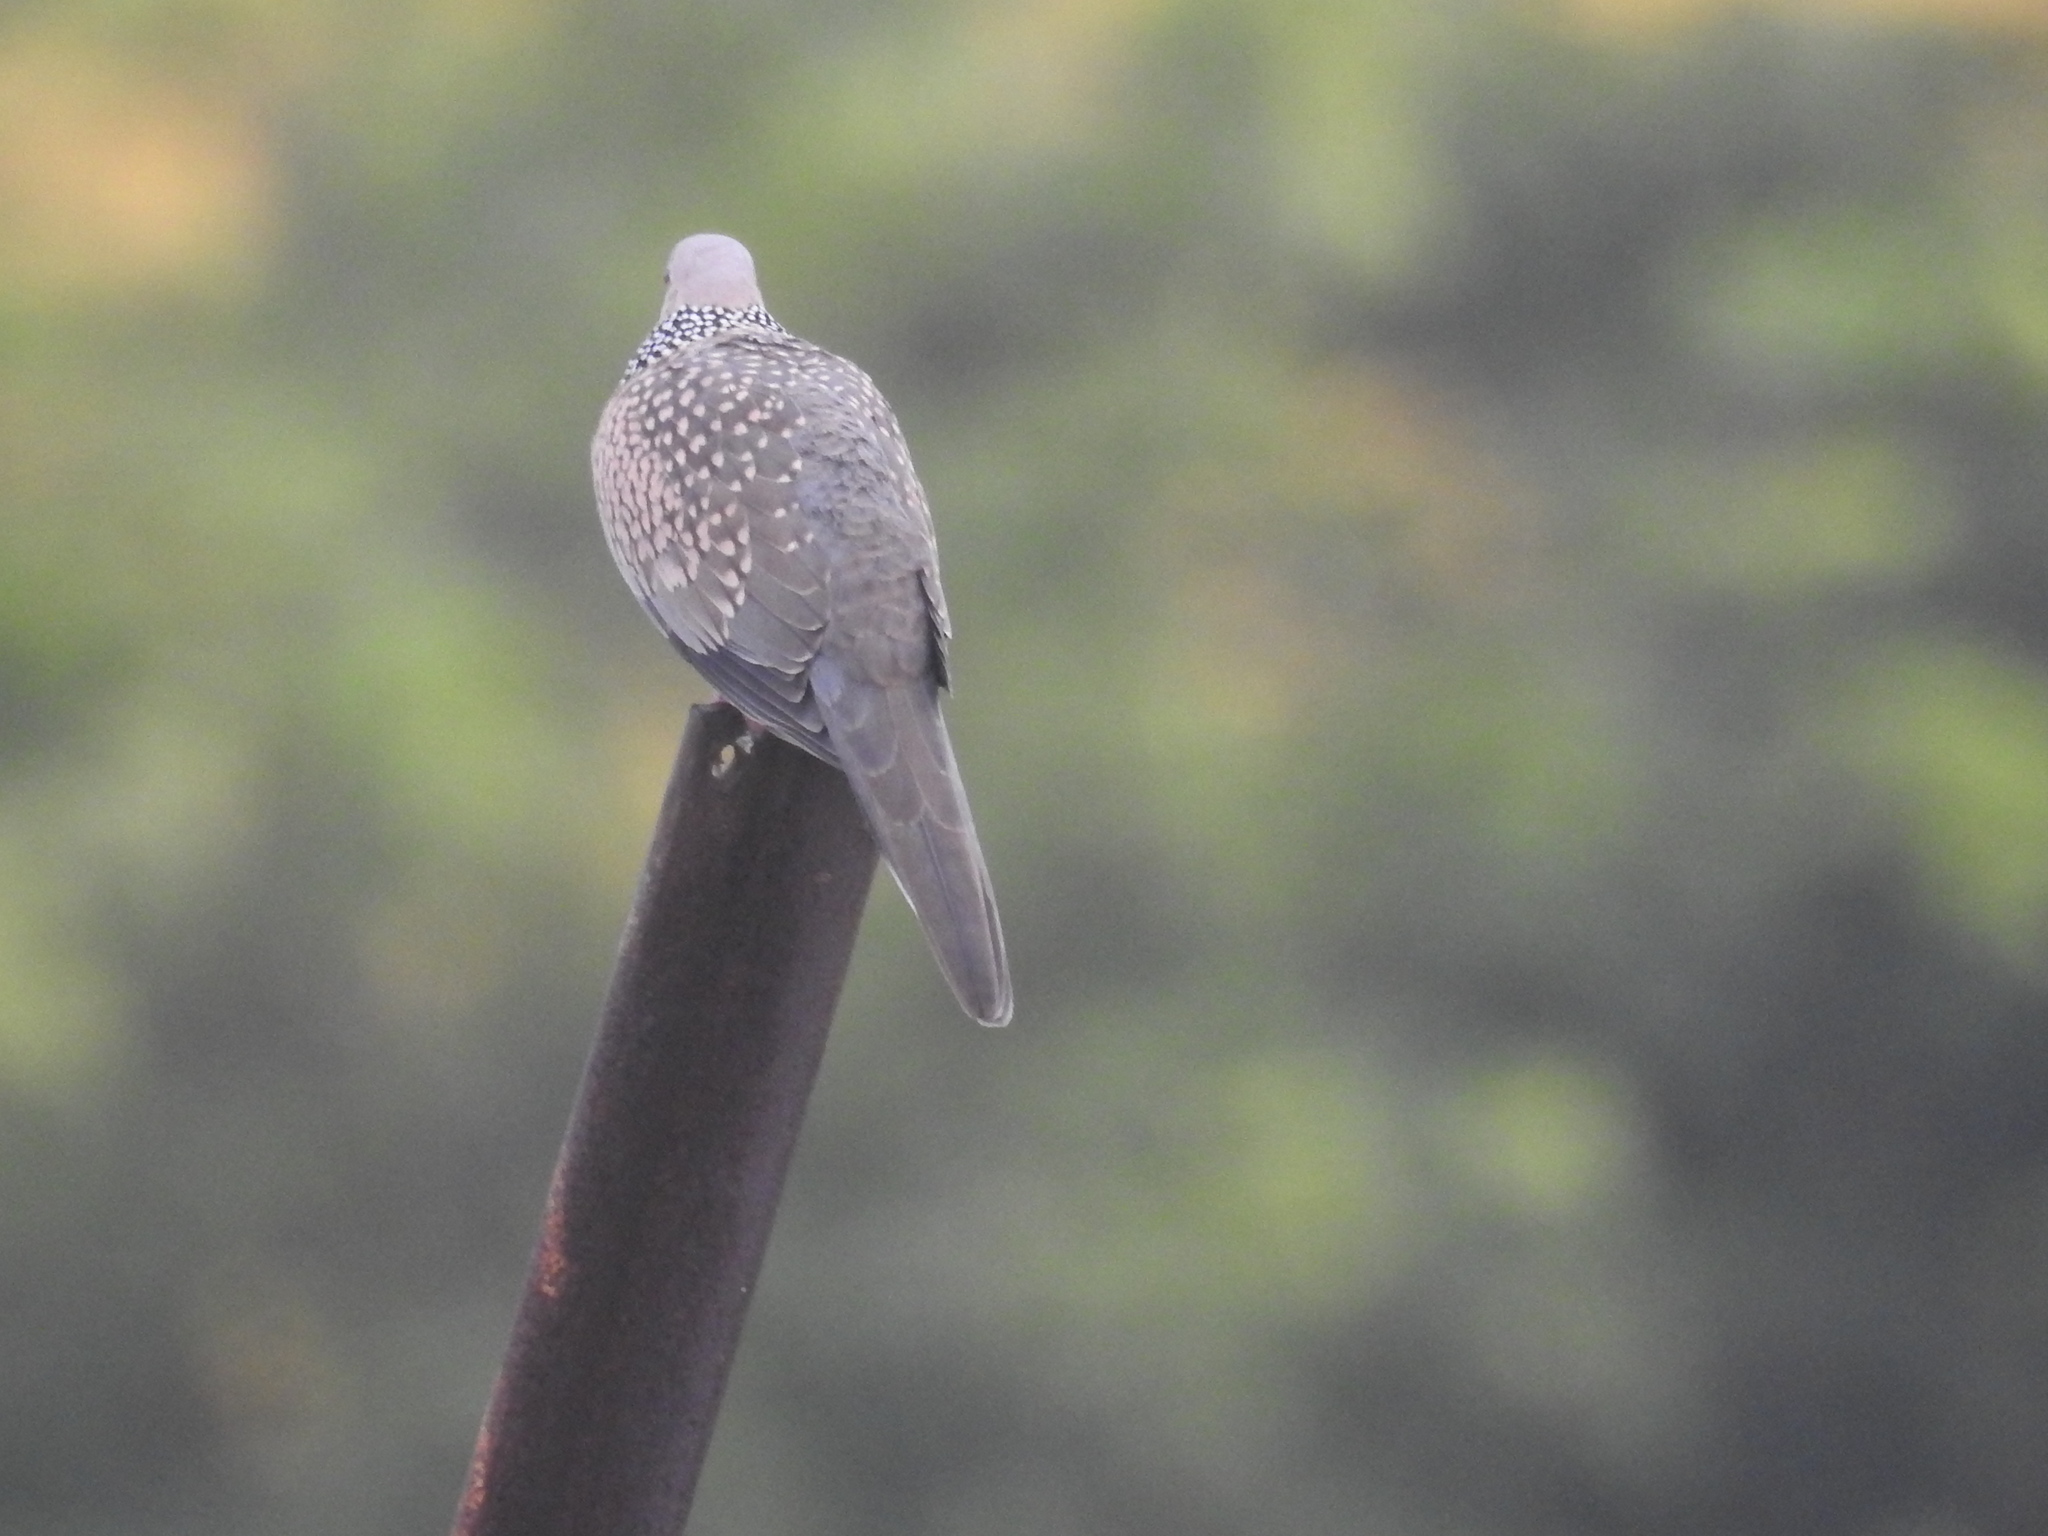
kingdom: Animalia
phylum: Chordata
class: Aves
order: Columbiformes
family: Columbidae
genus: Spilopelia
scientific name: Spilopelia chinensis
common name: Spotted dove
